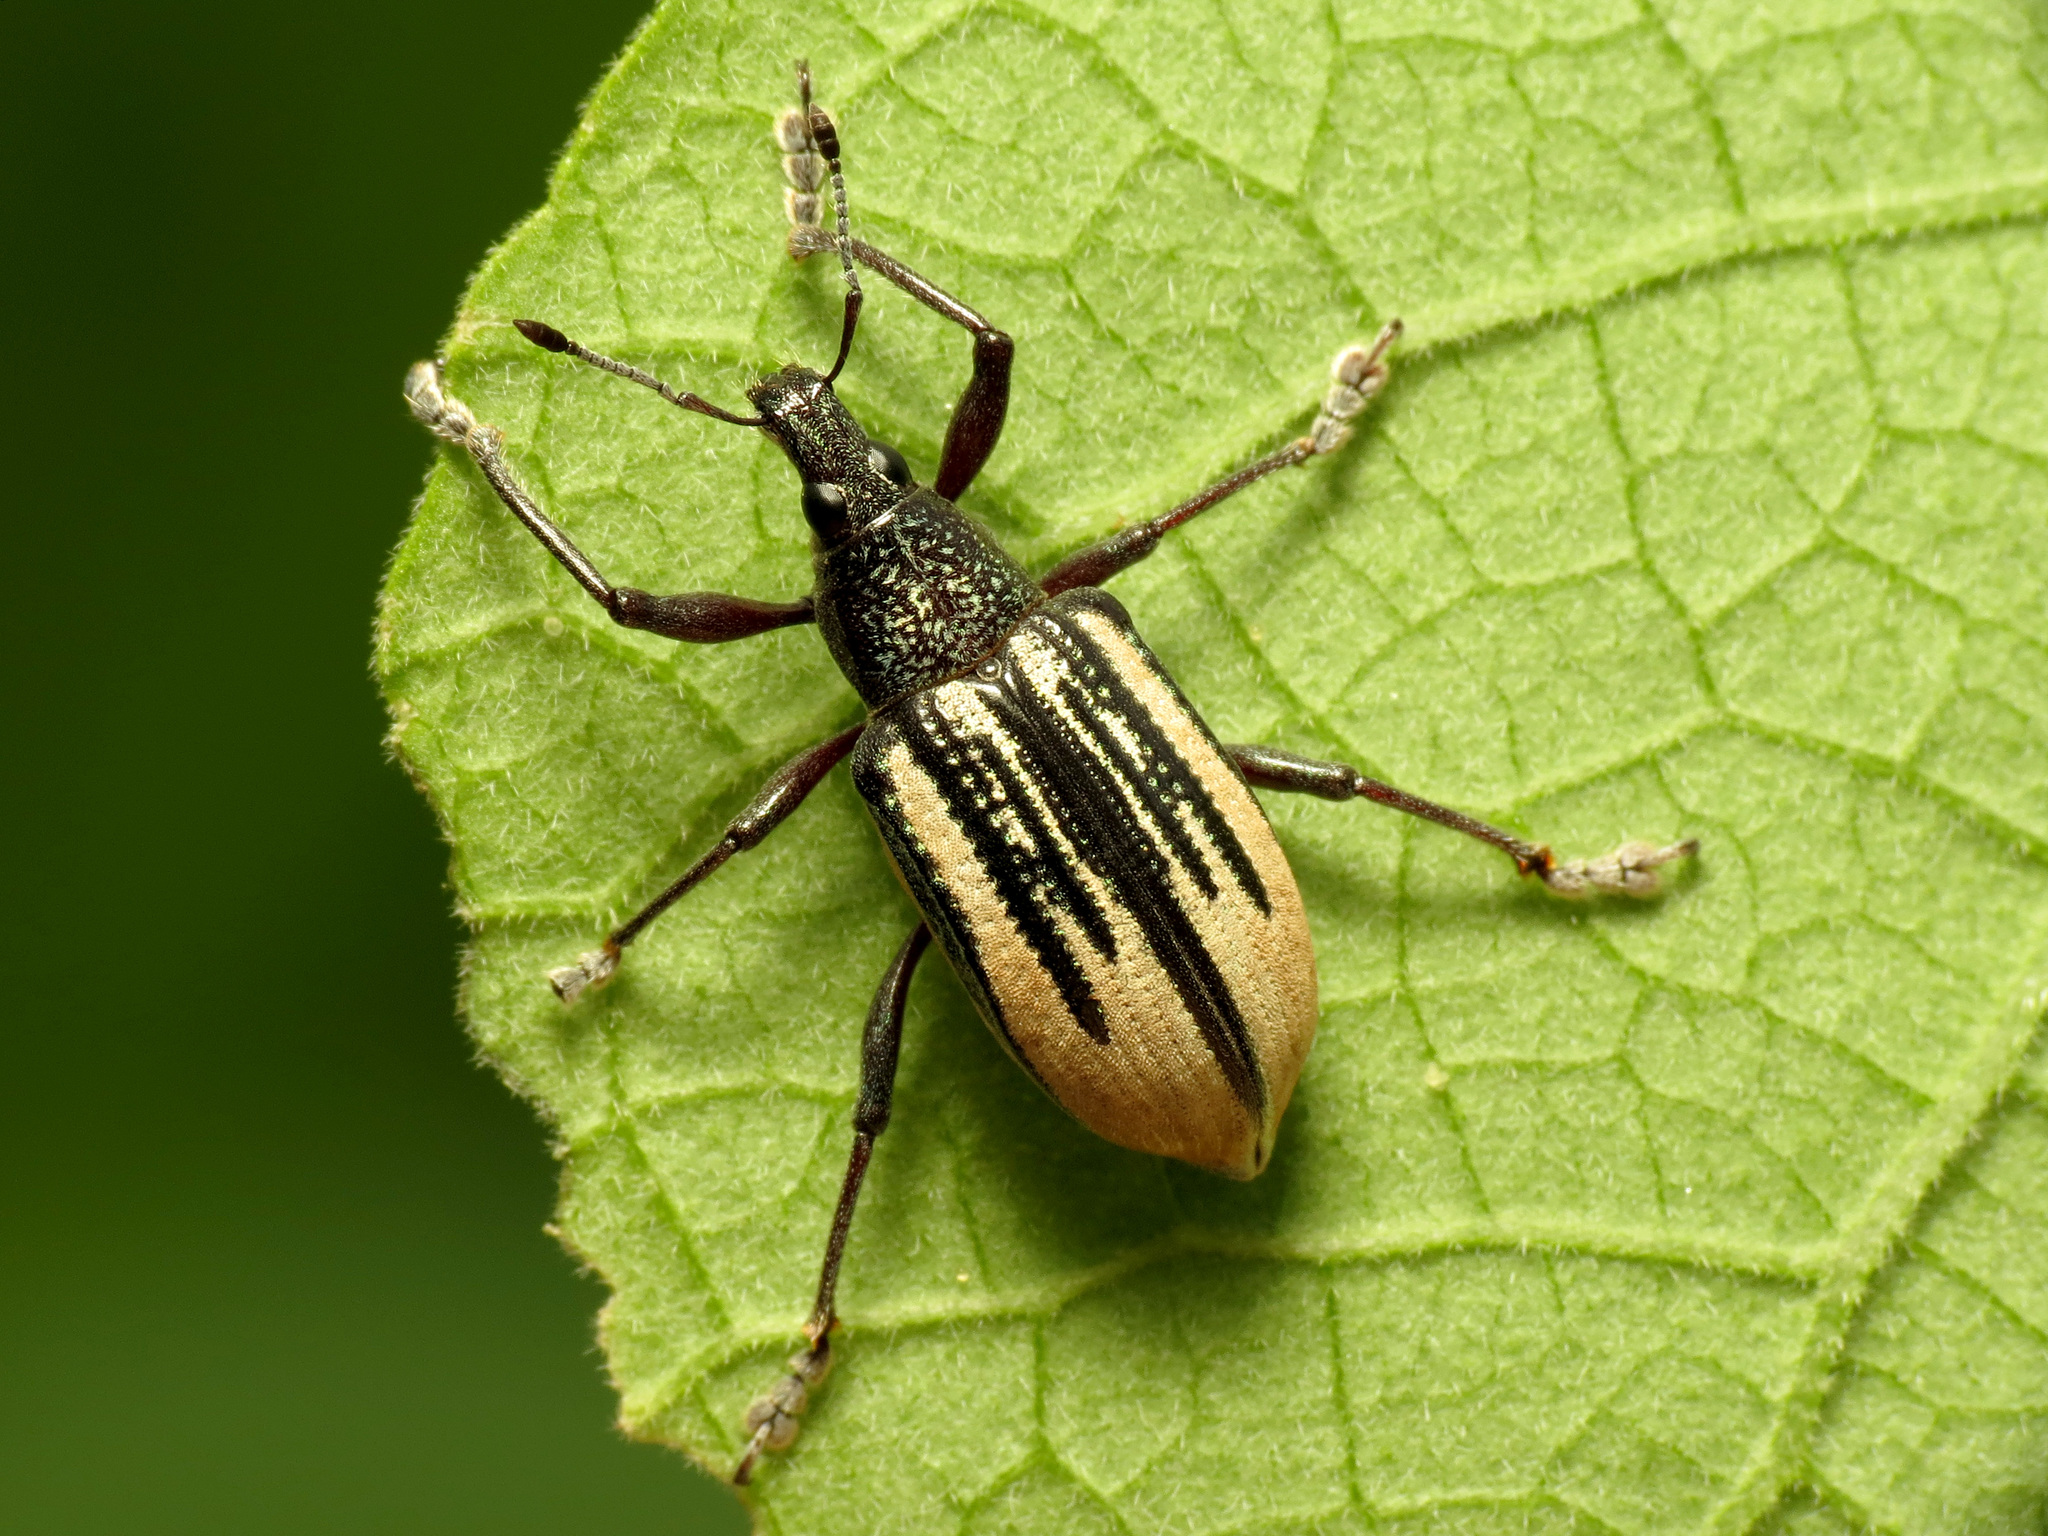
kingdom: Animalia
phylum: Arthropoda
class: Insecta
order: Coleoptera
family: Curculionidae
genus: Diaprepes
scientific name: Diaprepes abbreviatus
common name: Root weevil
